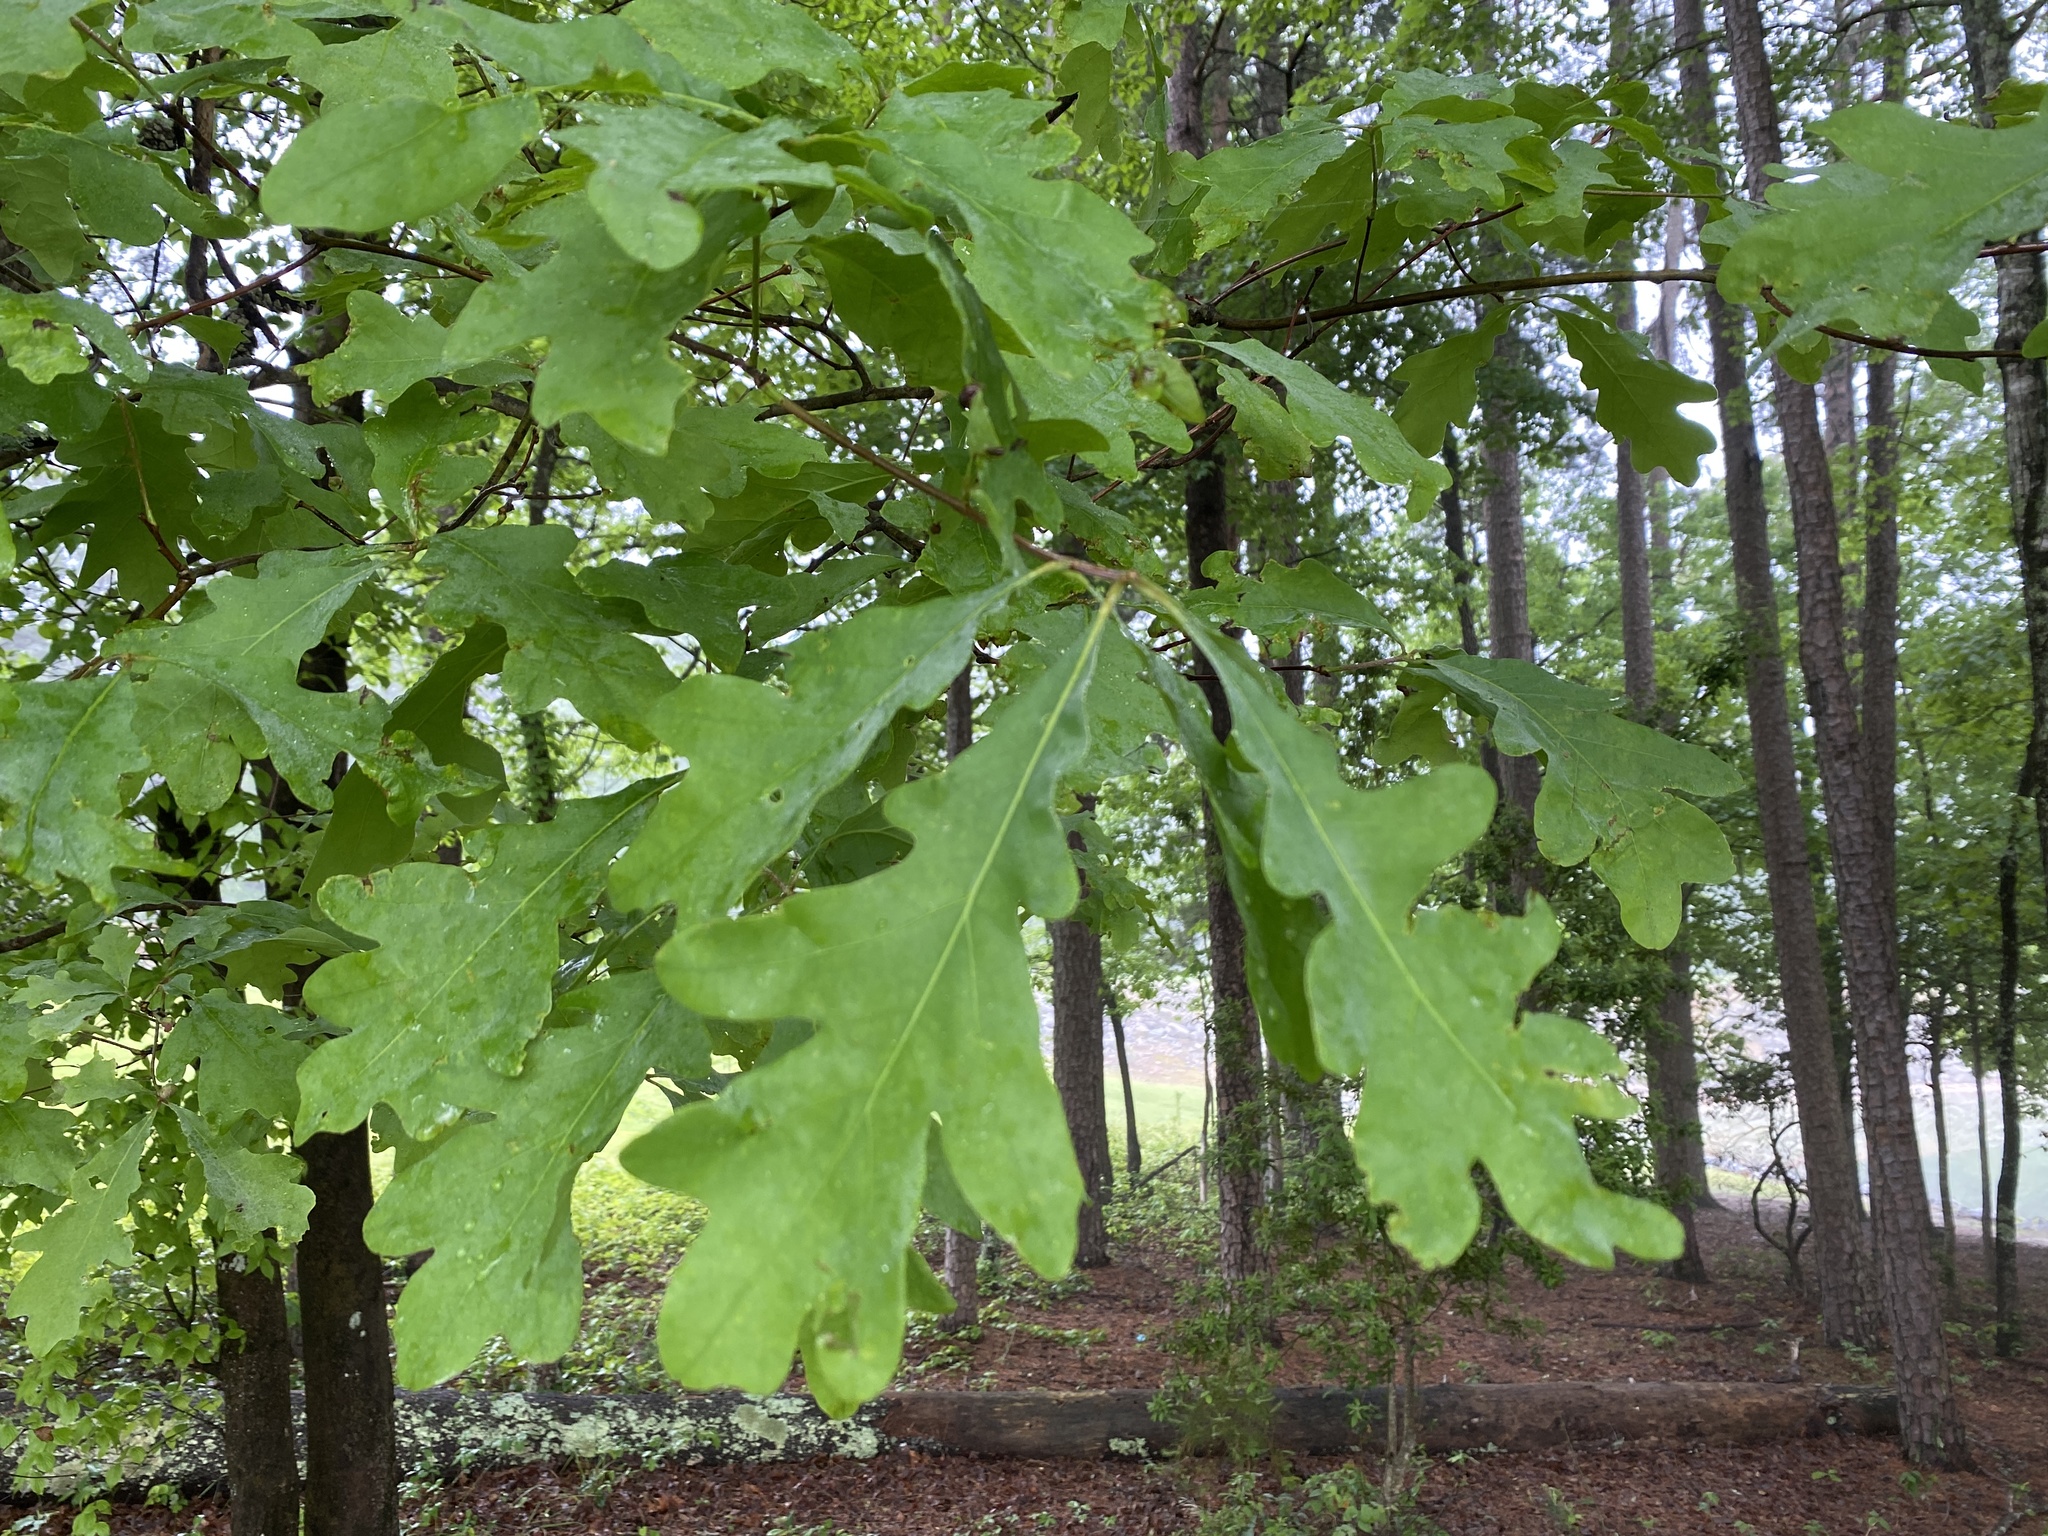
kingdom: Plantae
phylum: Tracheophyta
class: Magnoliopsida
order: Fagales
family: Fagaceae
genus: Quercus
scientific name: Quercus alba
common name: White oak
